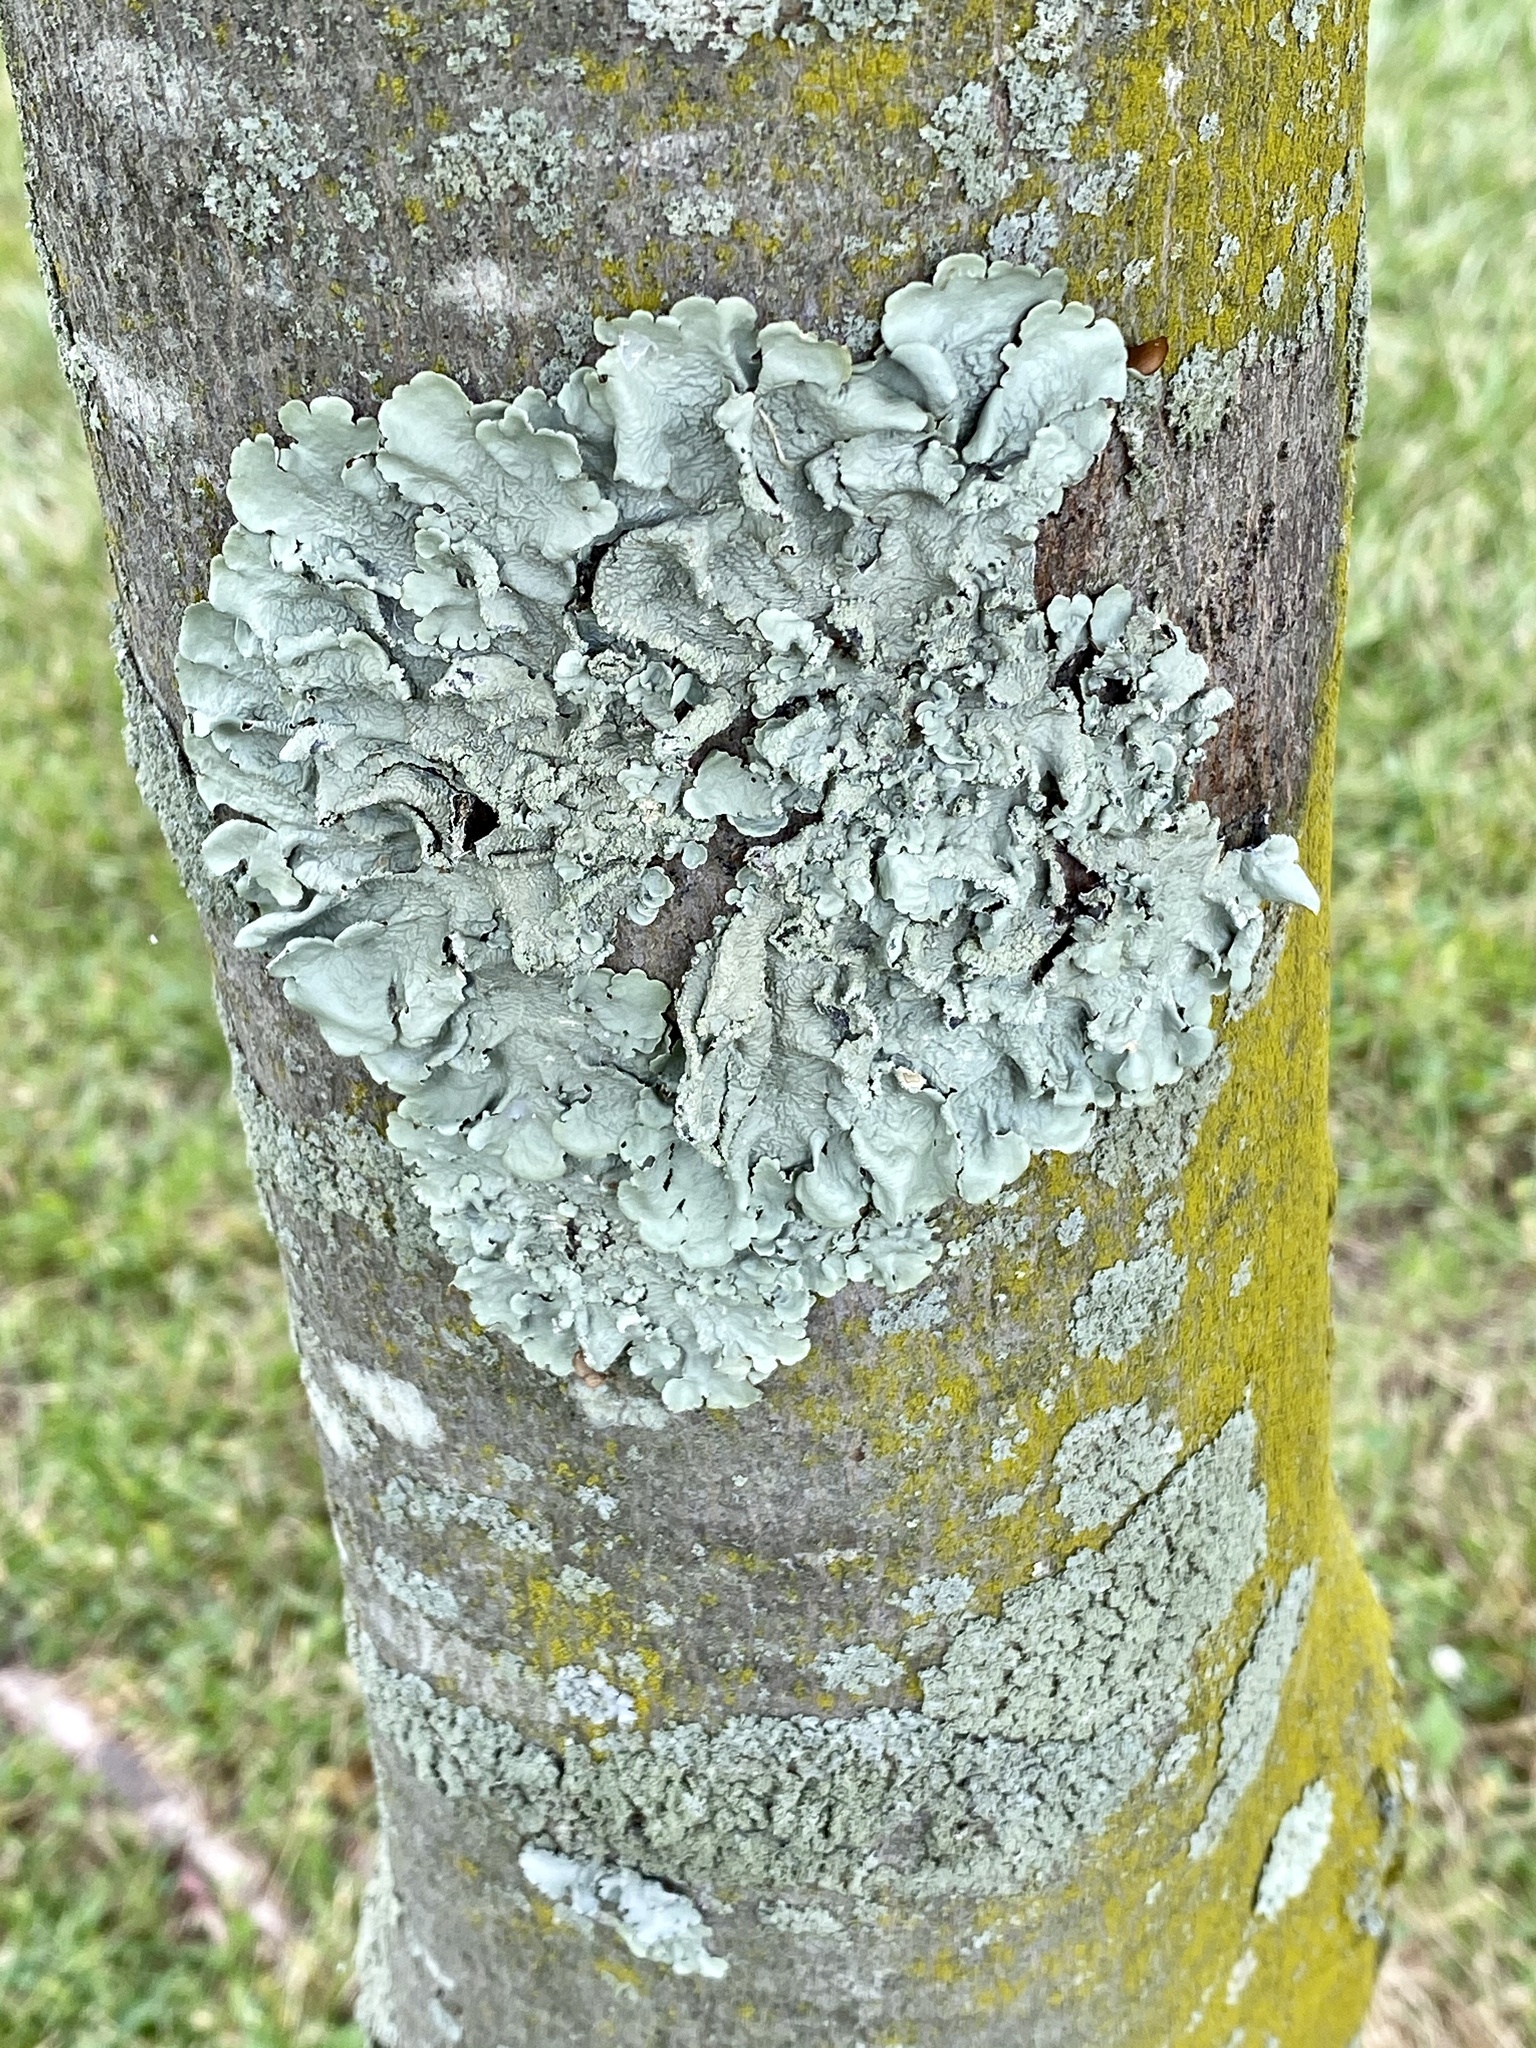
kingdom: Fungi
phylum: Ascomycota
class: Lecanoromycetes
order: Lecanorales
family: Parmeliaceae
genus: Flavoparmelia
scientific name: Flavoparmelia caperata
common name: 40-mile per hour lichen
